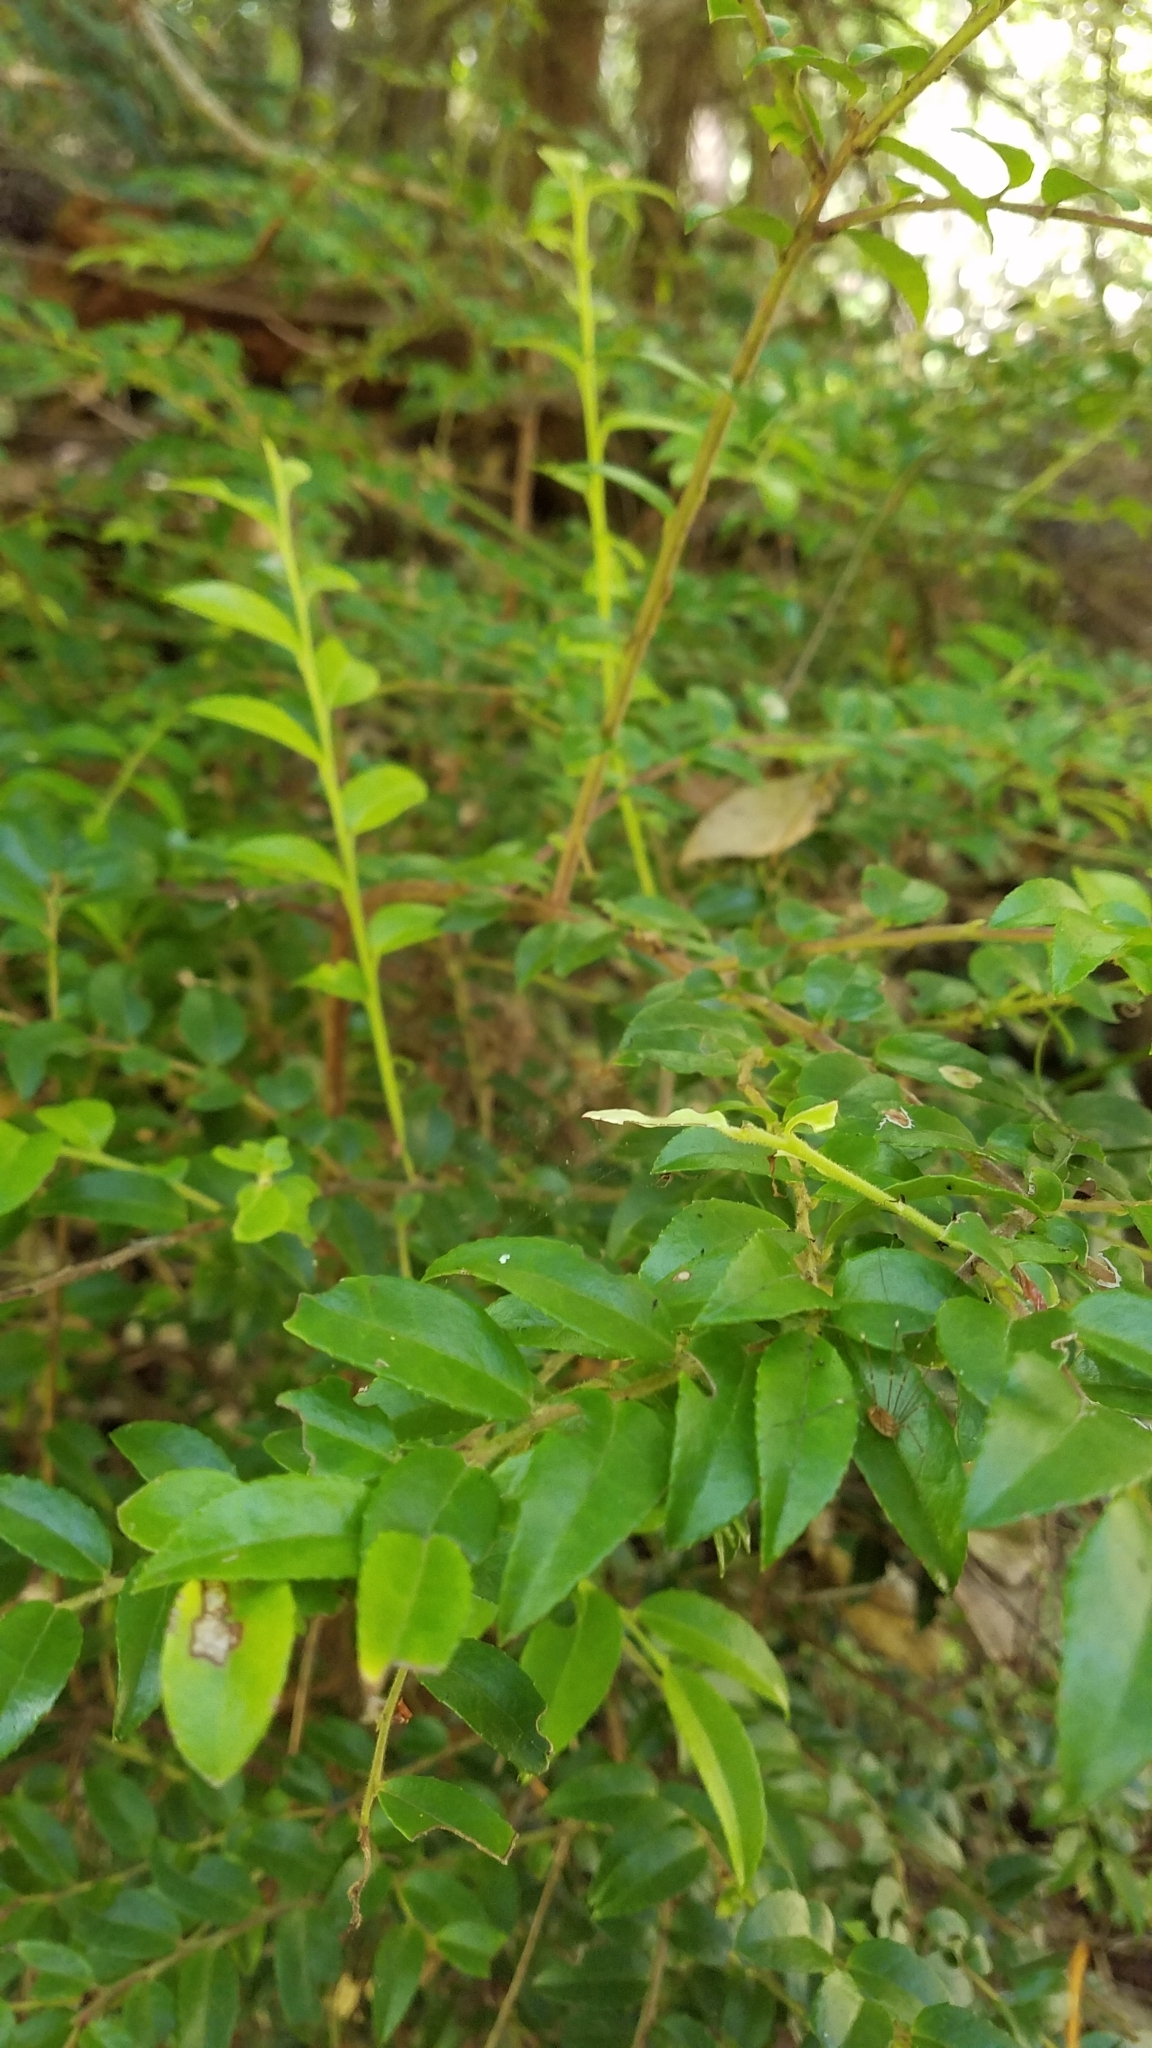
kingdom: Plantae
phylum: Tracheophyta
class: Magnoliopsida
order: Ericales
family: Ericaceae
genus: Vaccinium
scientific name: Vaccinium ovatum
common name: California-huckleberry
